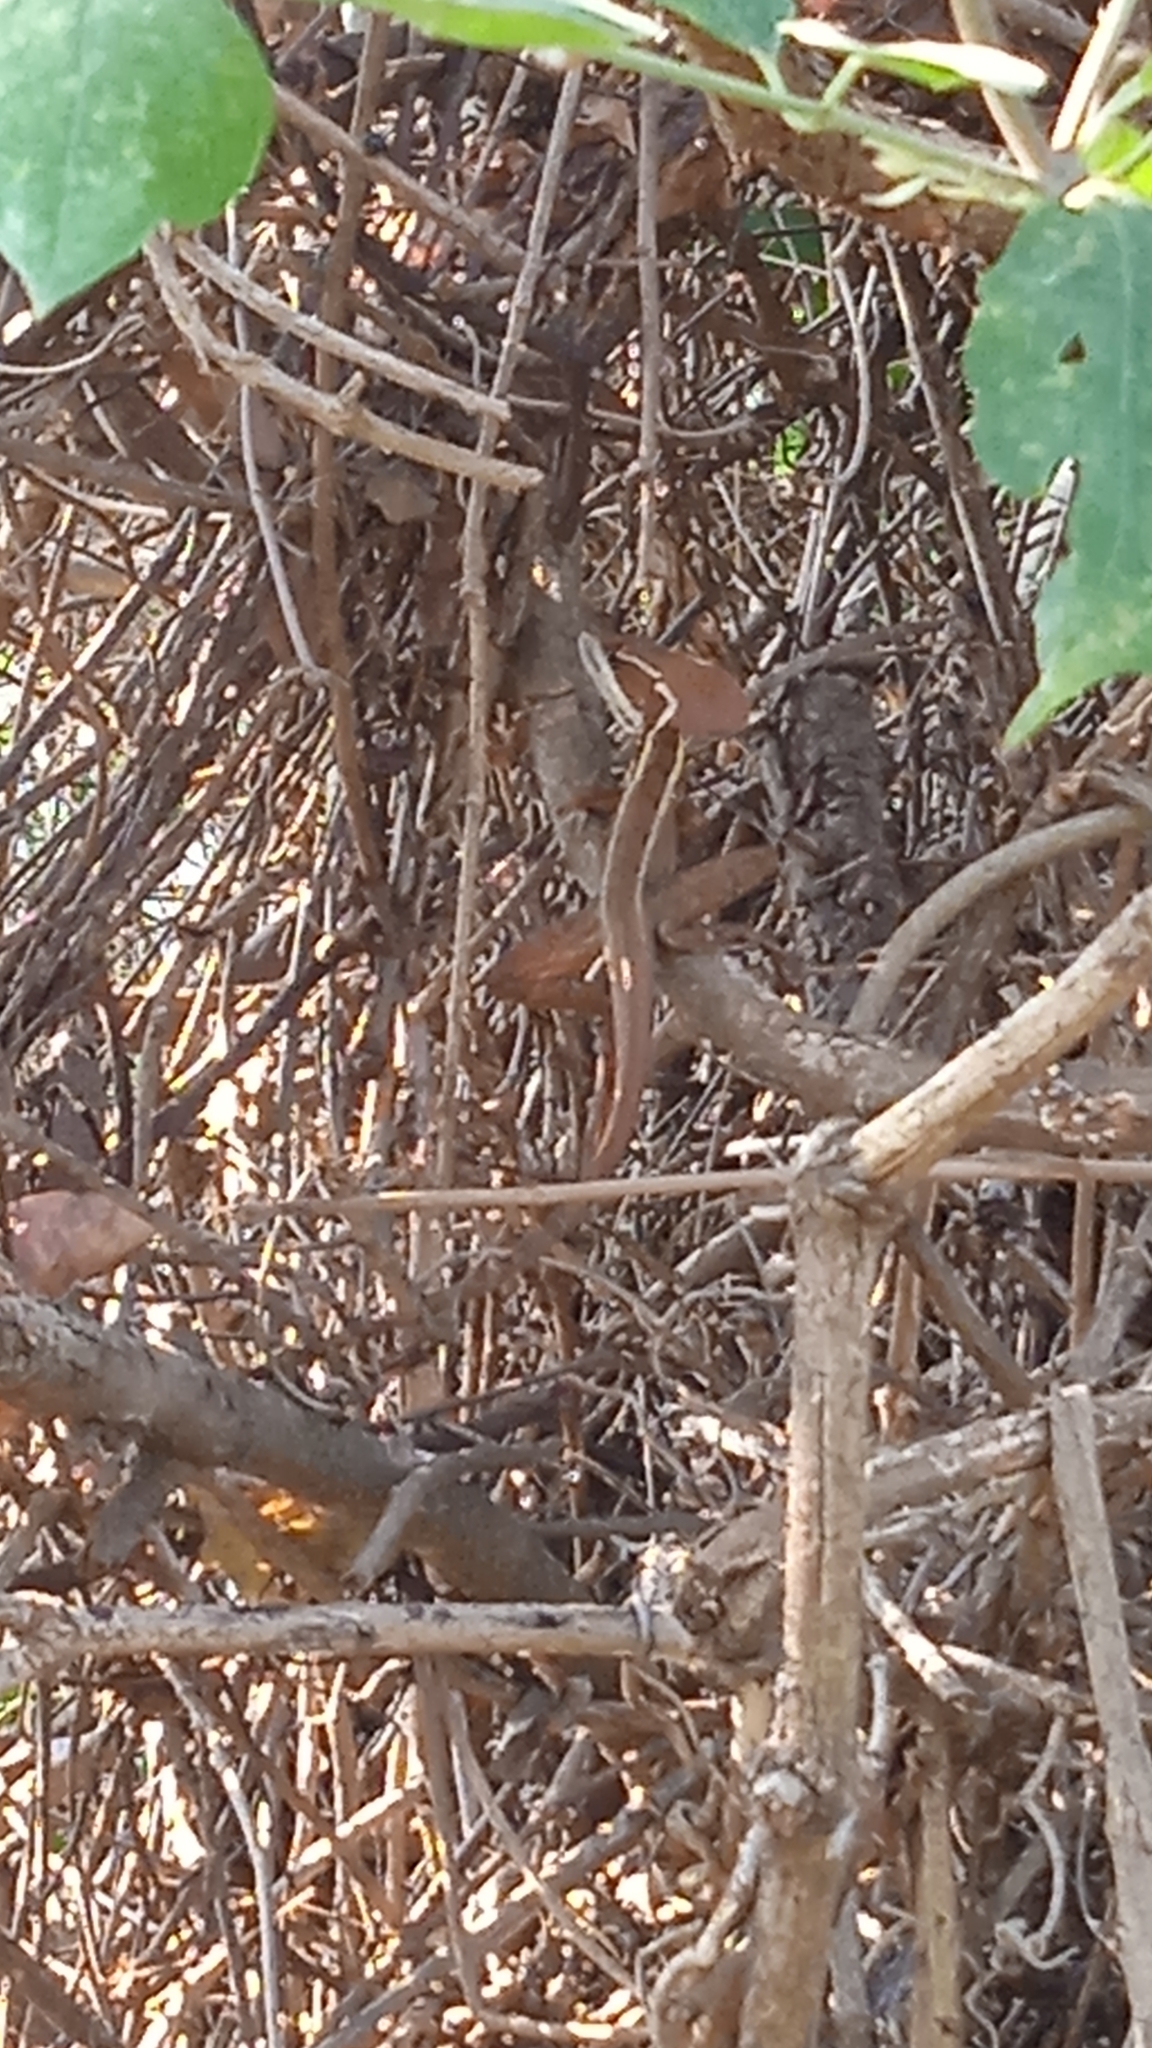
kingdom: Animalia
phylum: Chordata
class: Squamata
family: Corytophanidae
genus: Basiliscus
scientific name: Basiliscus vittatus
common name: Brown basilisk
